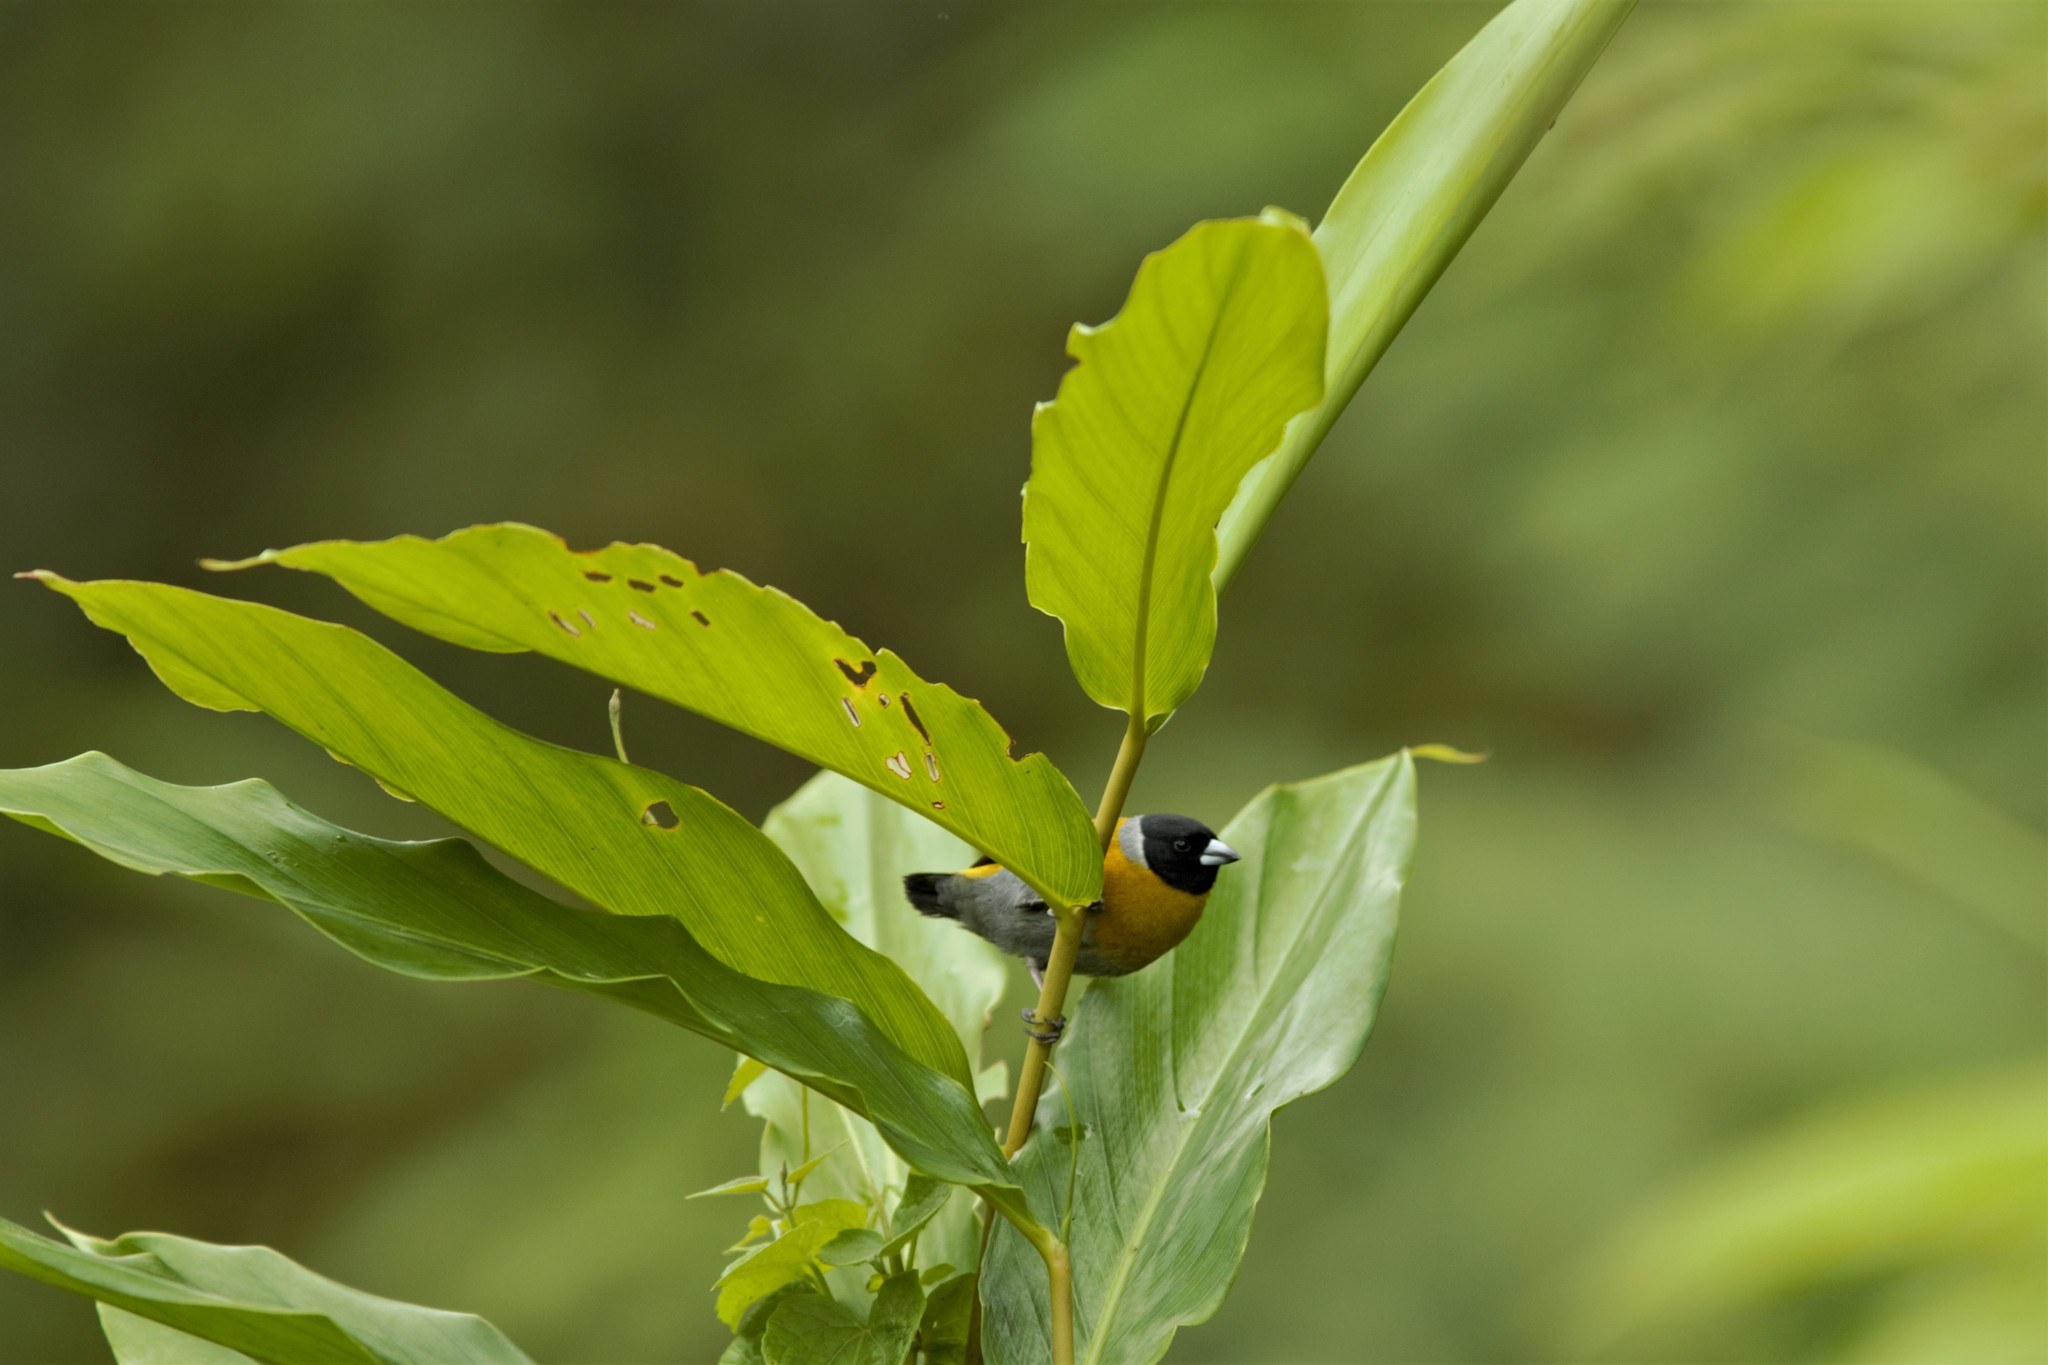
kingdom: Animalia
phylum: Chordata
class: Aves
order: Passeriformes
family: Estrildidae
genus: Nesocharis
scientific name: Nesocharis shelleyi
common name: Shelley's oliveback
